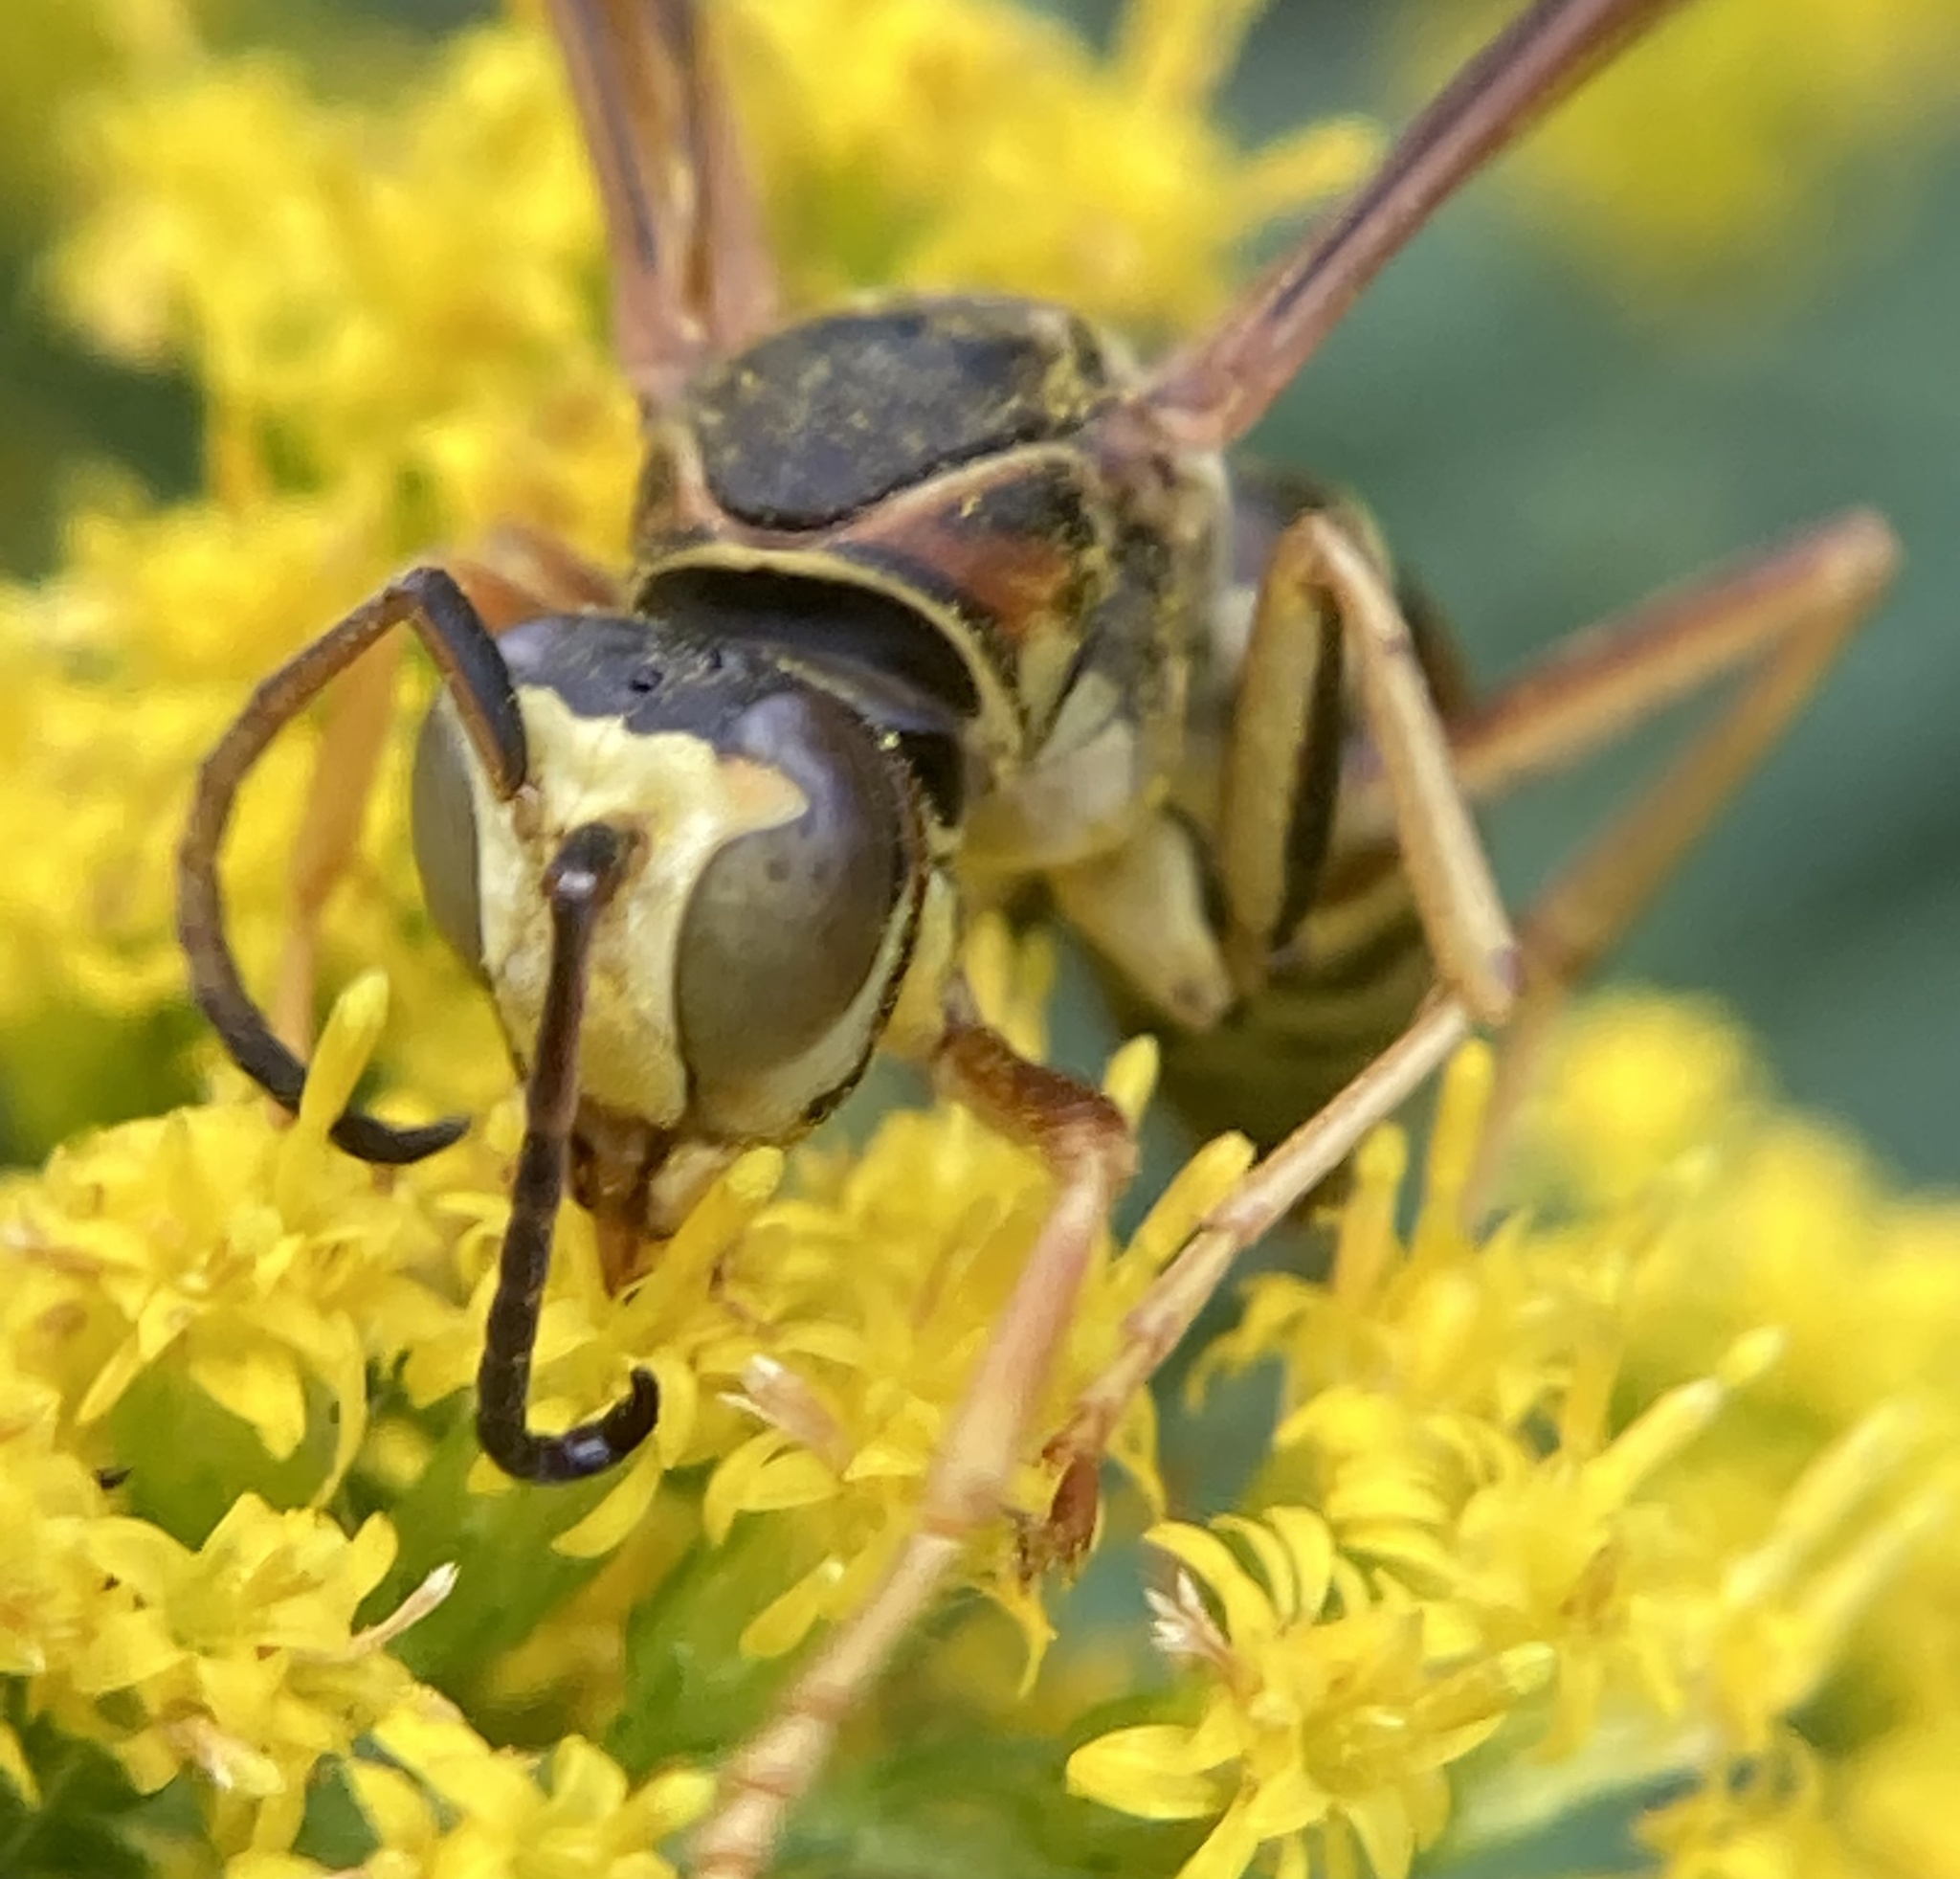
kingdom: Animalia
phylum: Arthropoda
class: Insecta
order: Hymenoptera
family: Eumenidae
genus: Polistes
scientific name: Polistes fuscatus
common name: Dark paper wasp
